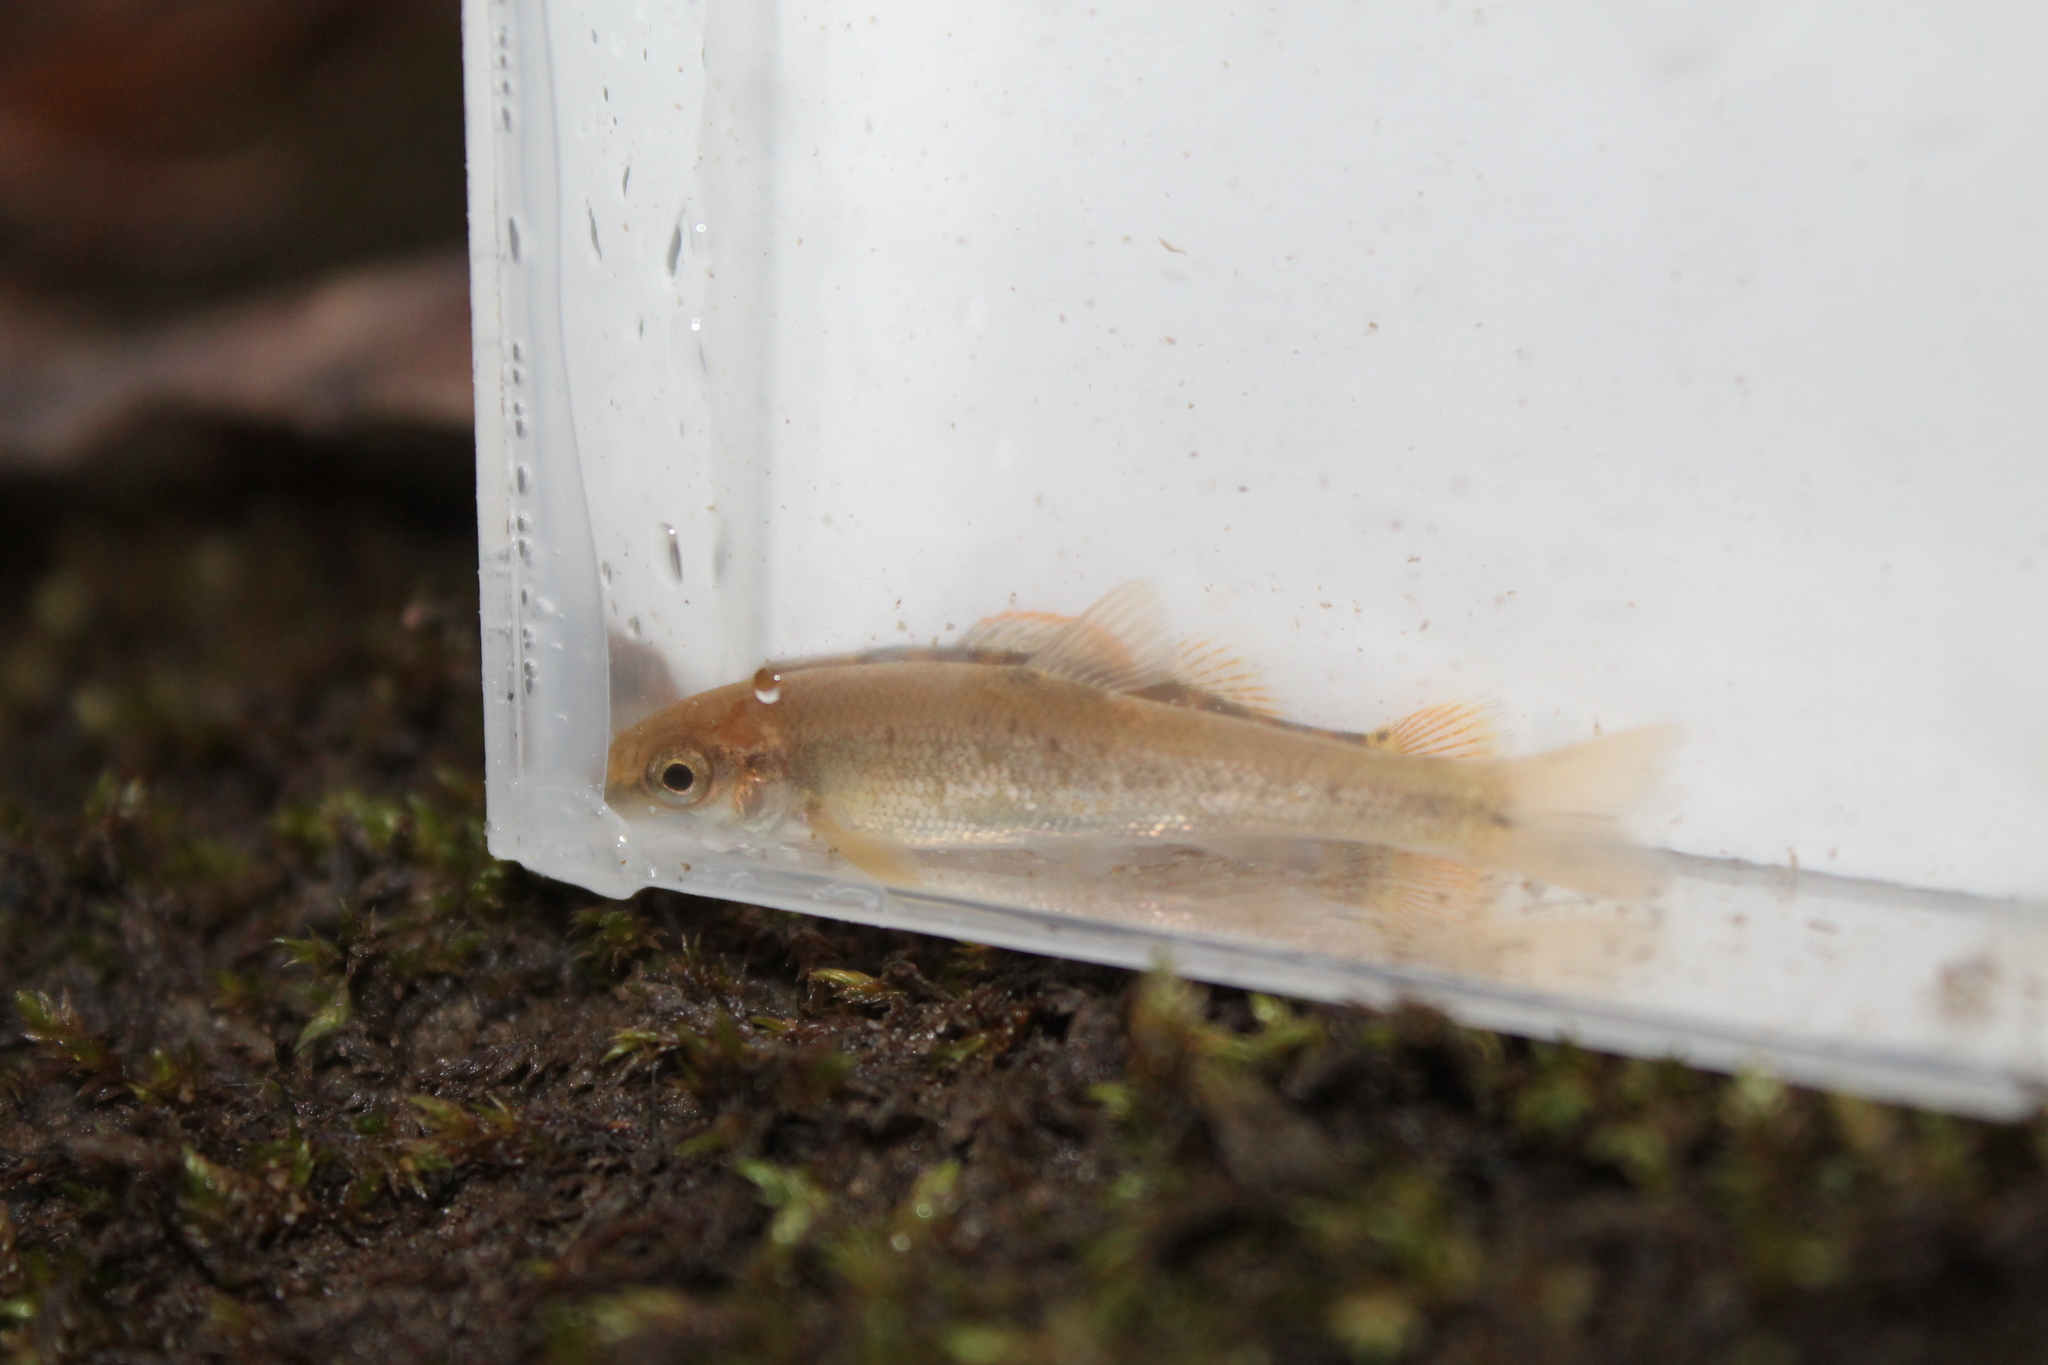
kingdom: Animalia
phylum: Chordata
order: Cypriniformes
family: Cyprinidae
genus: Campostoma
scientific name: Campostoma oligolepis
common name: Largescale stoneroller
